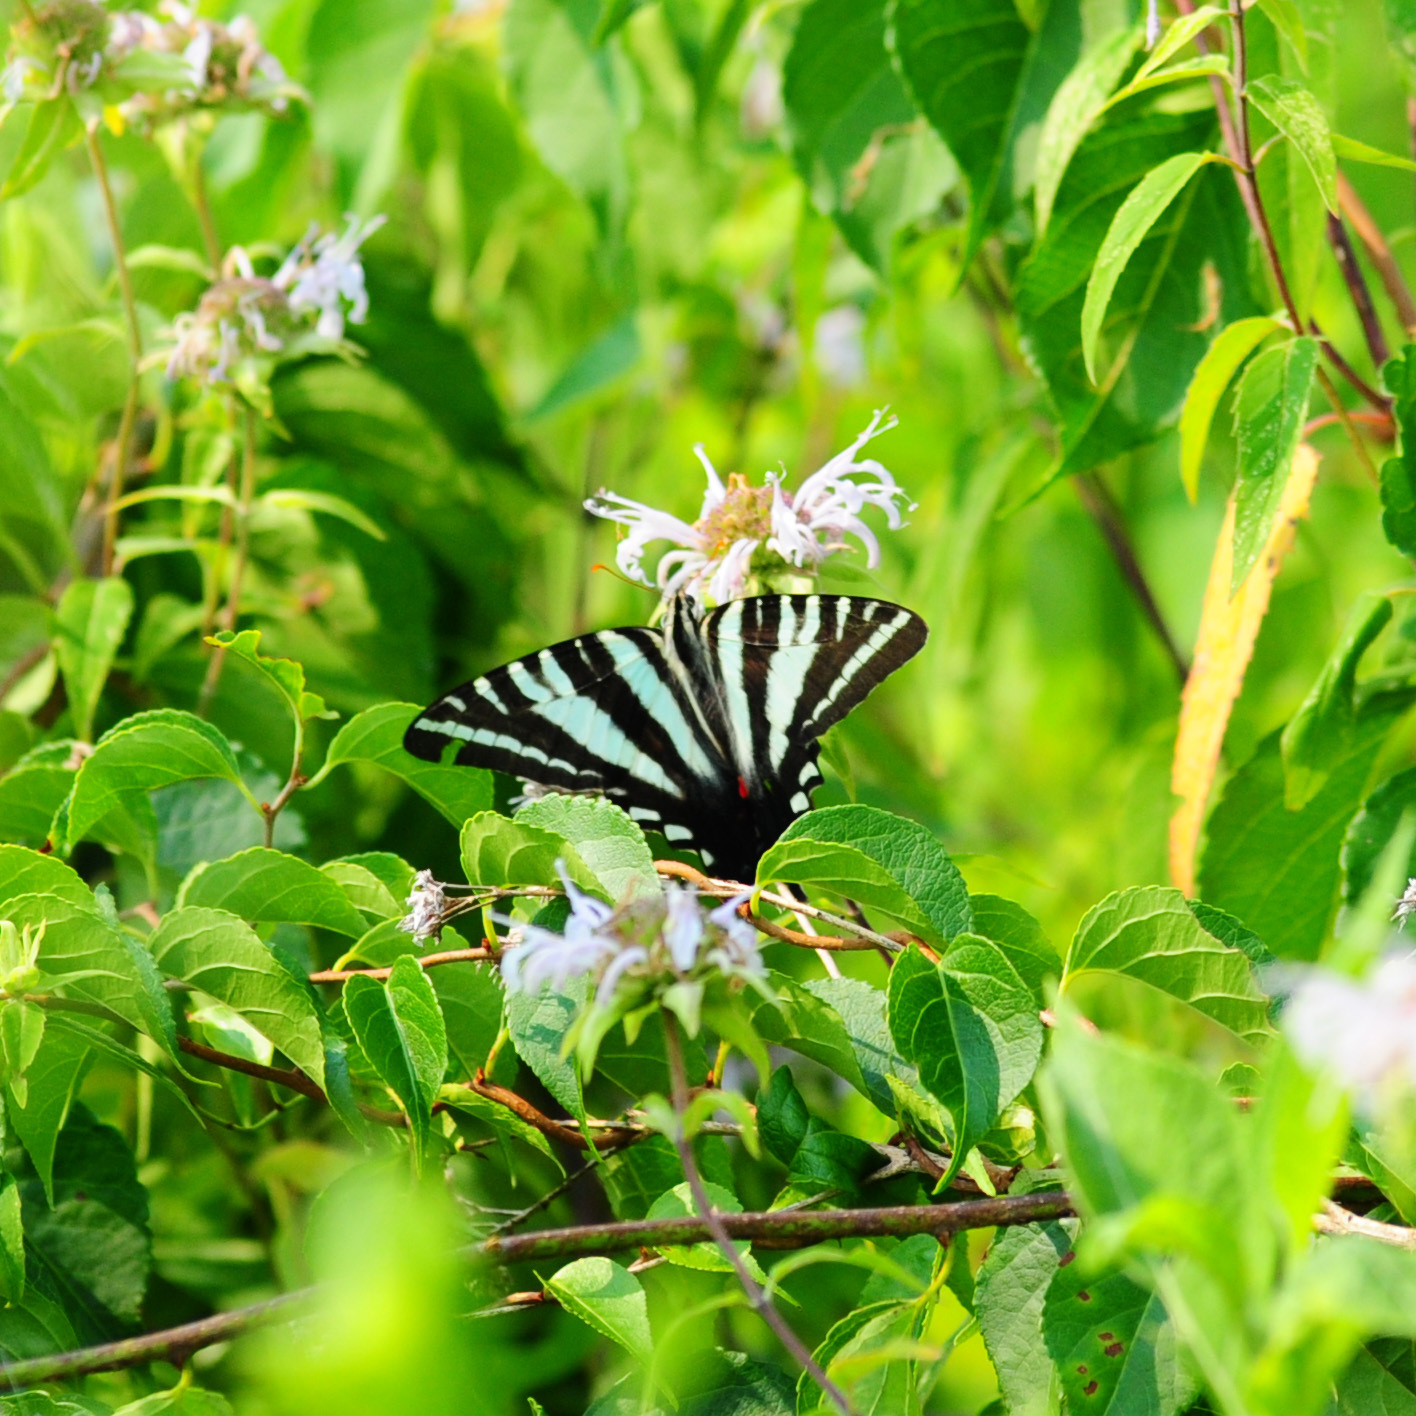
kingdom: Animalia
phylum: Arthropoda
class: Insecta
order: Lepidoptera
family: Papilionidae
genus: Protographium
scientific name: Protographium marcellus
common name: Zebra swallowtail
